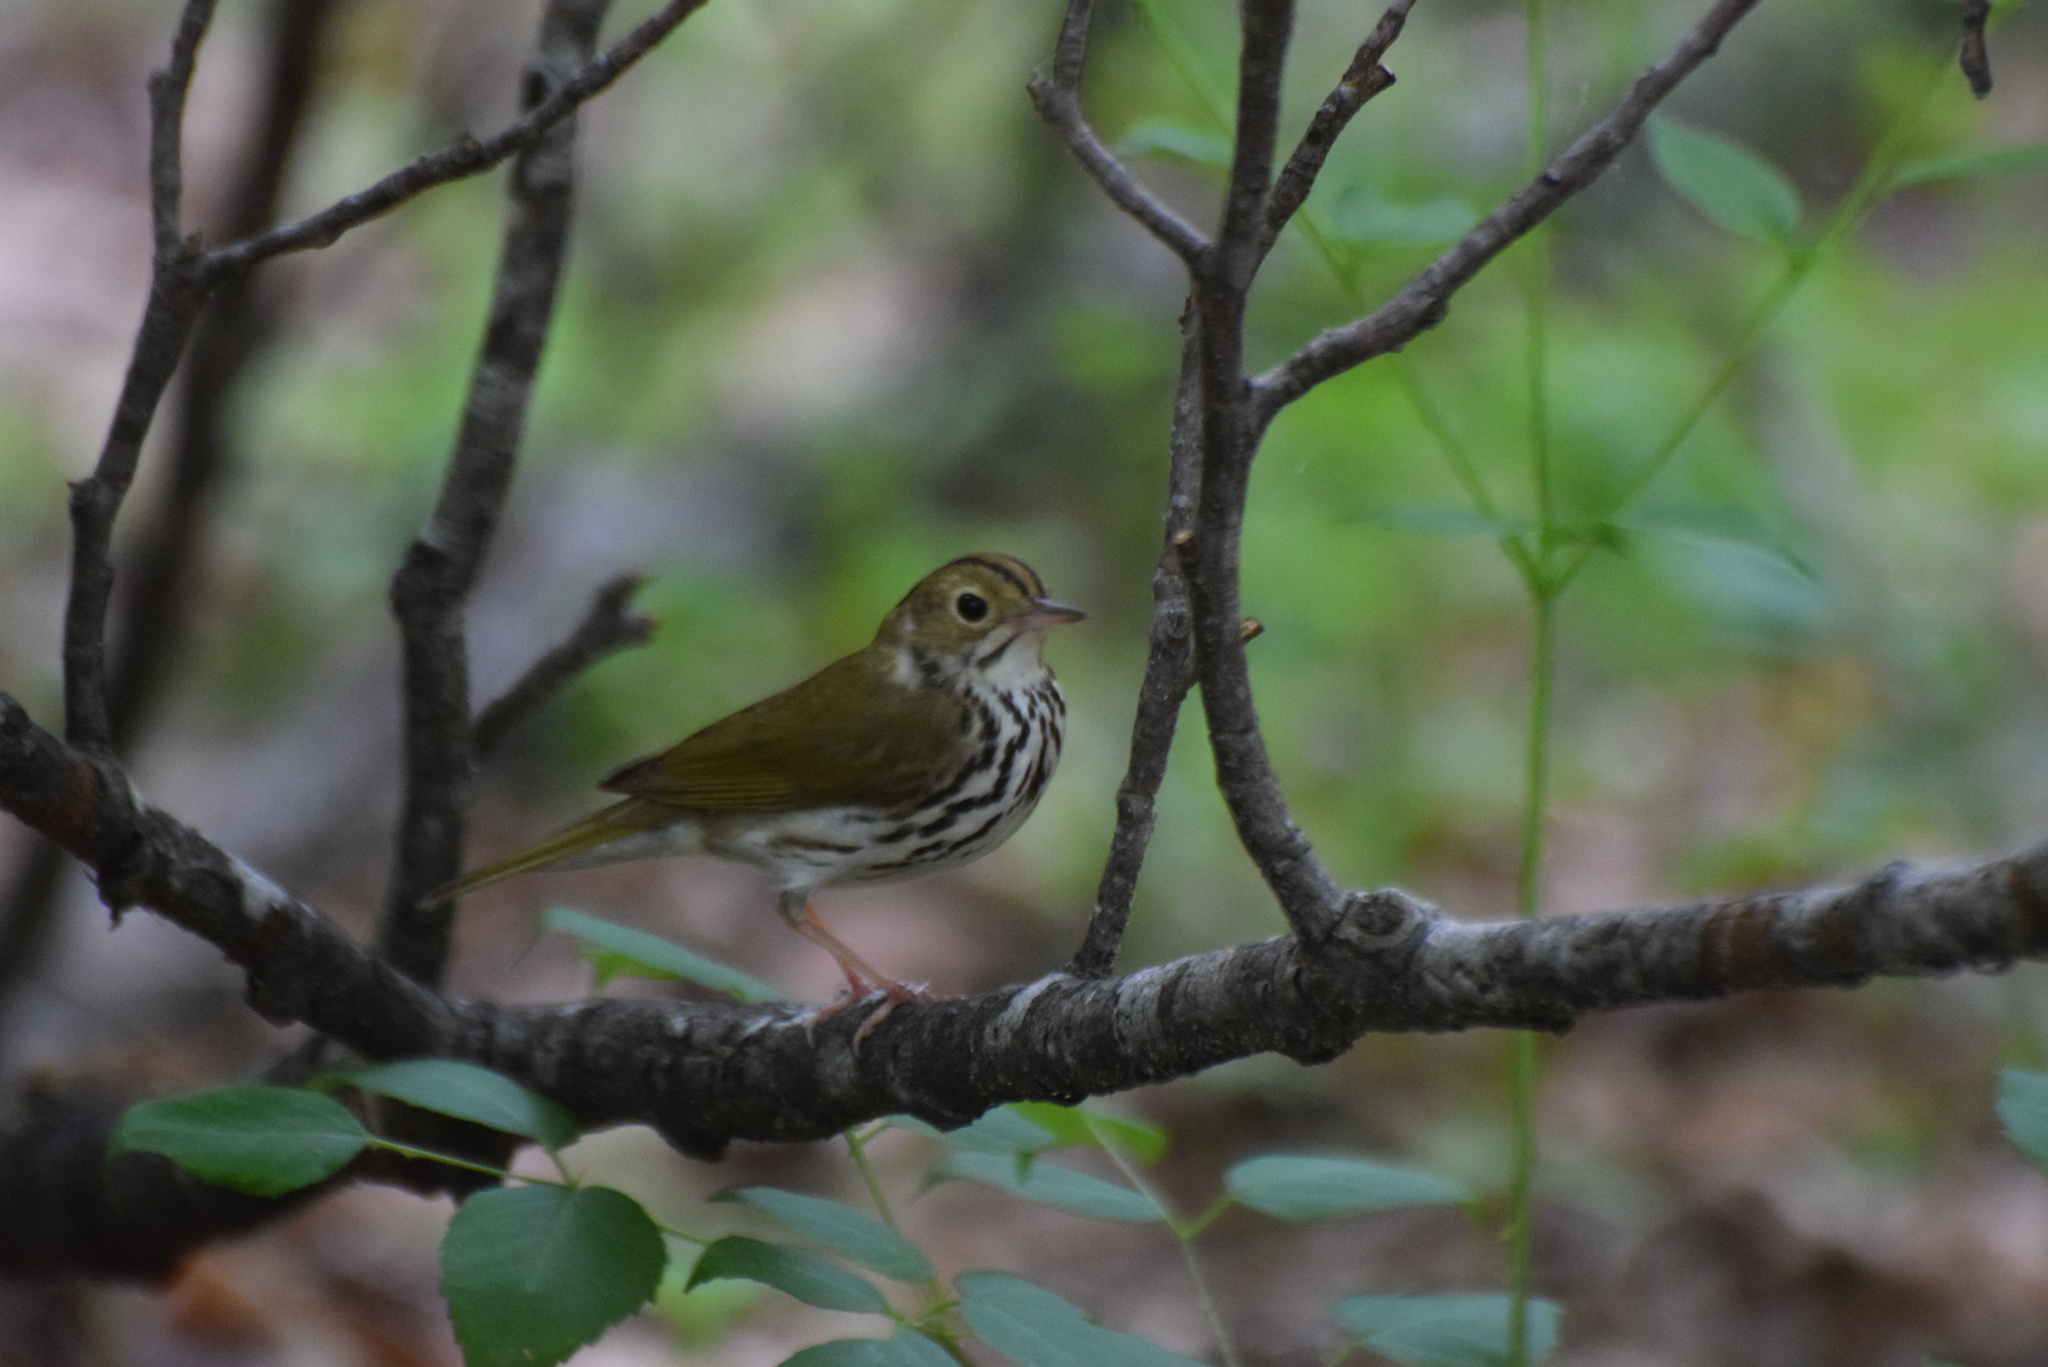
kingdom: Animalia
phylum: Chordata
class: Aves
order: Passeriformes
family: Parulidae
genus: Seiurus
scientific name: Seiurus aurocapilla
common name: Ovenbird
